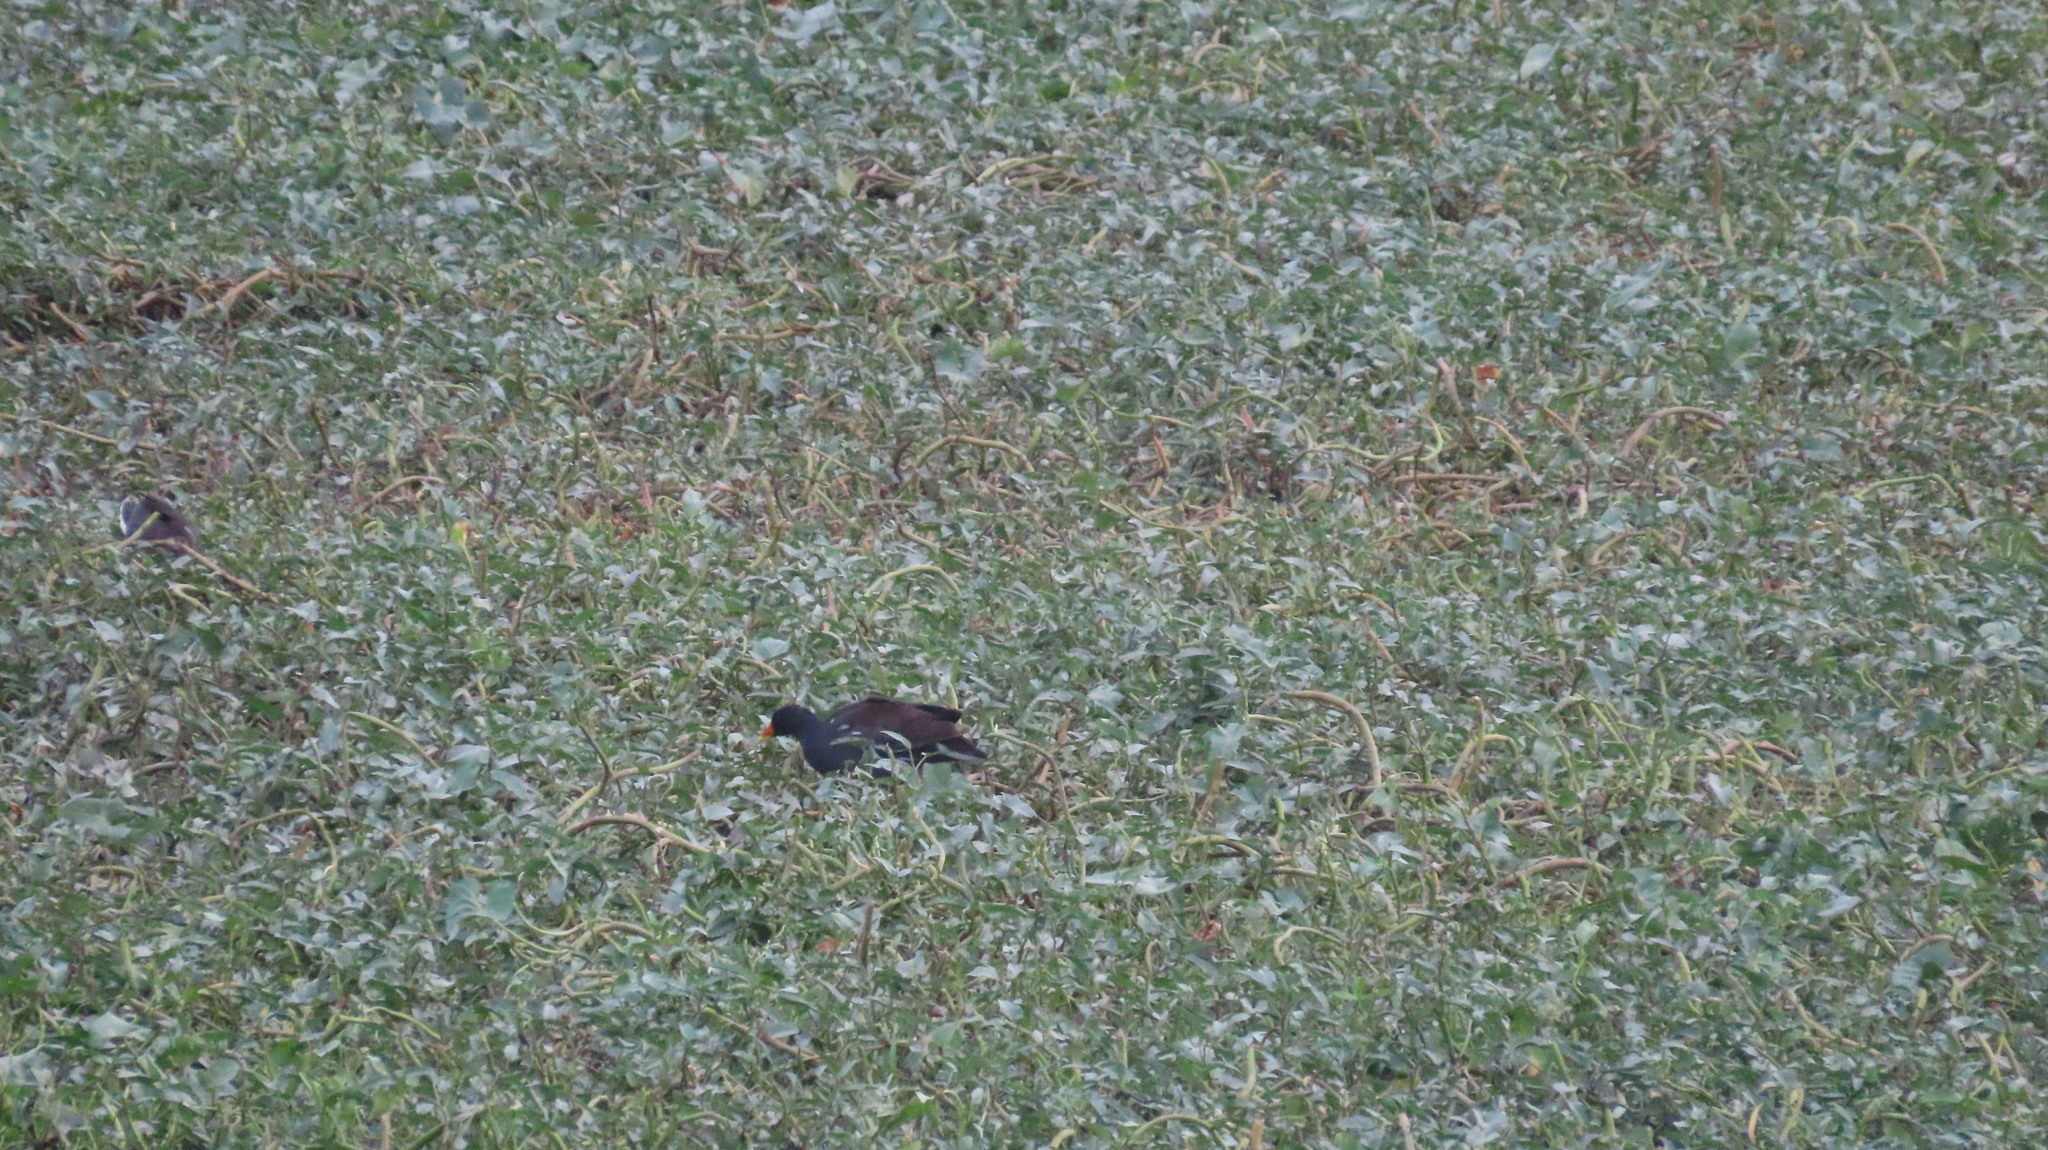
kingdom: Animalia
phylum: Chordata
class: Aves
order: Gruiformes
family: Rallidae
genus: Gallinula
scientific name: Gallinula chloropus
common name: Common moorhen
